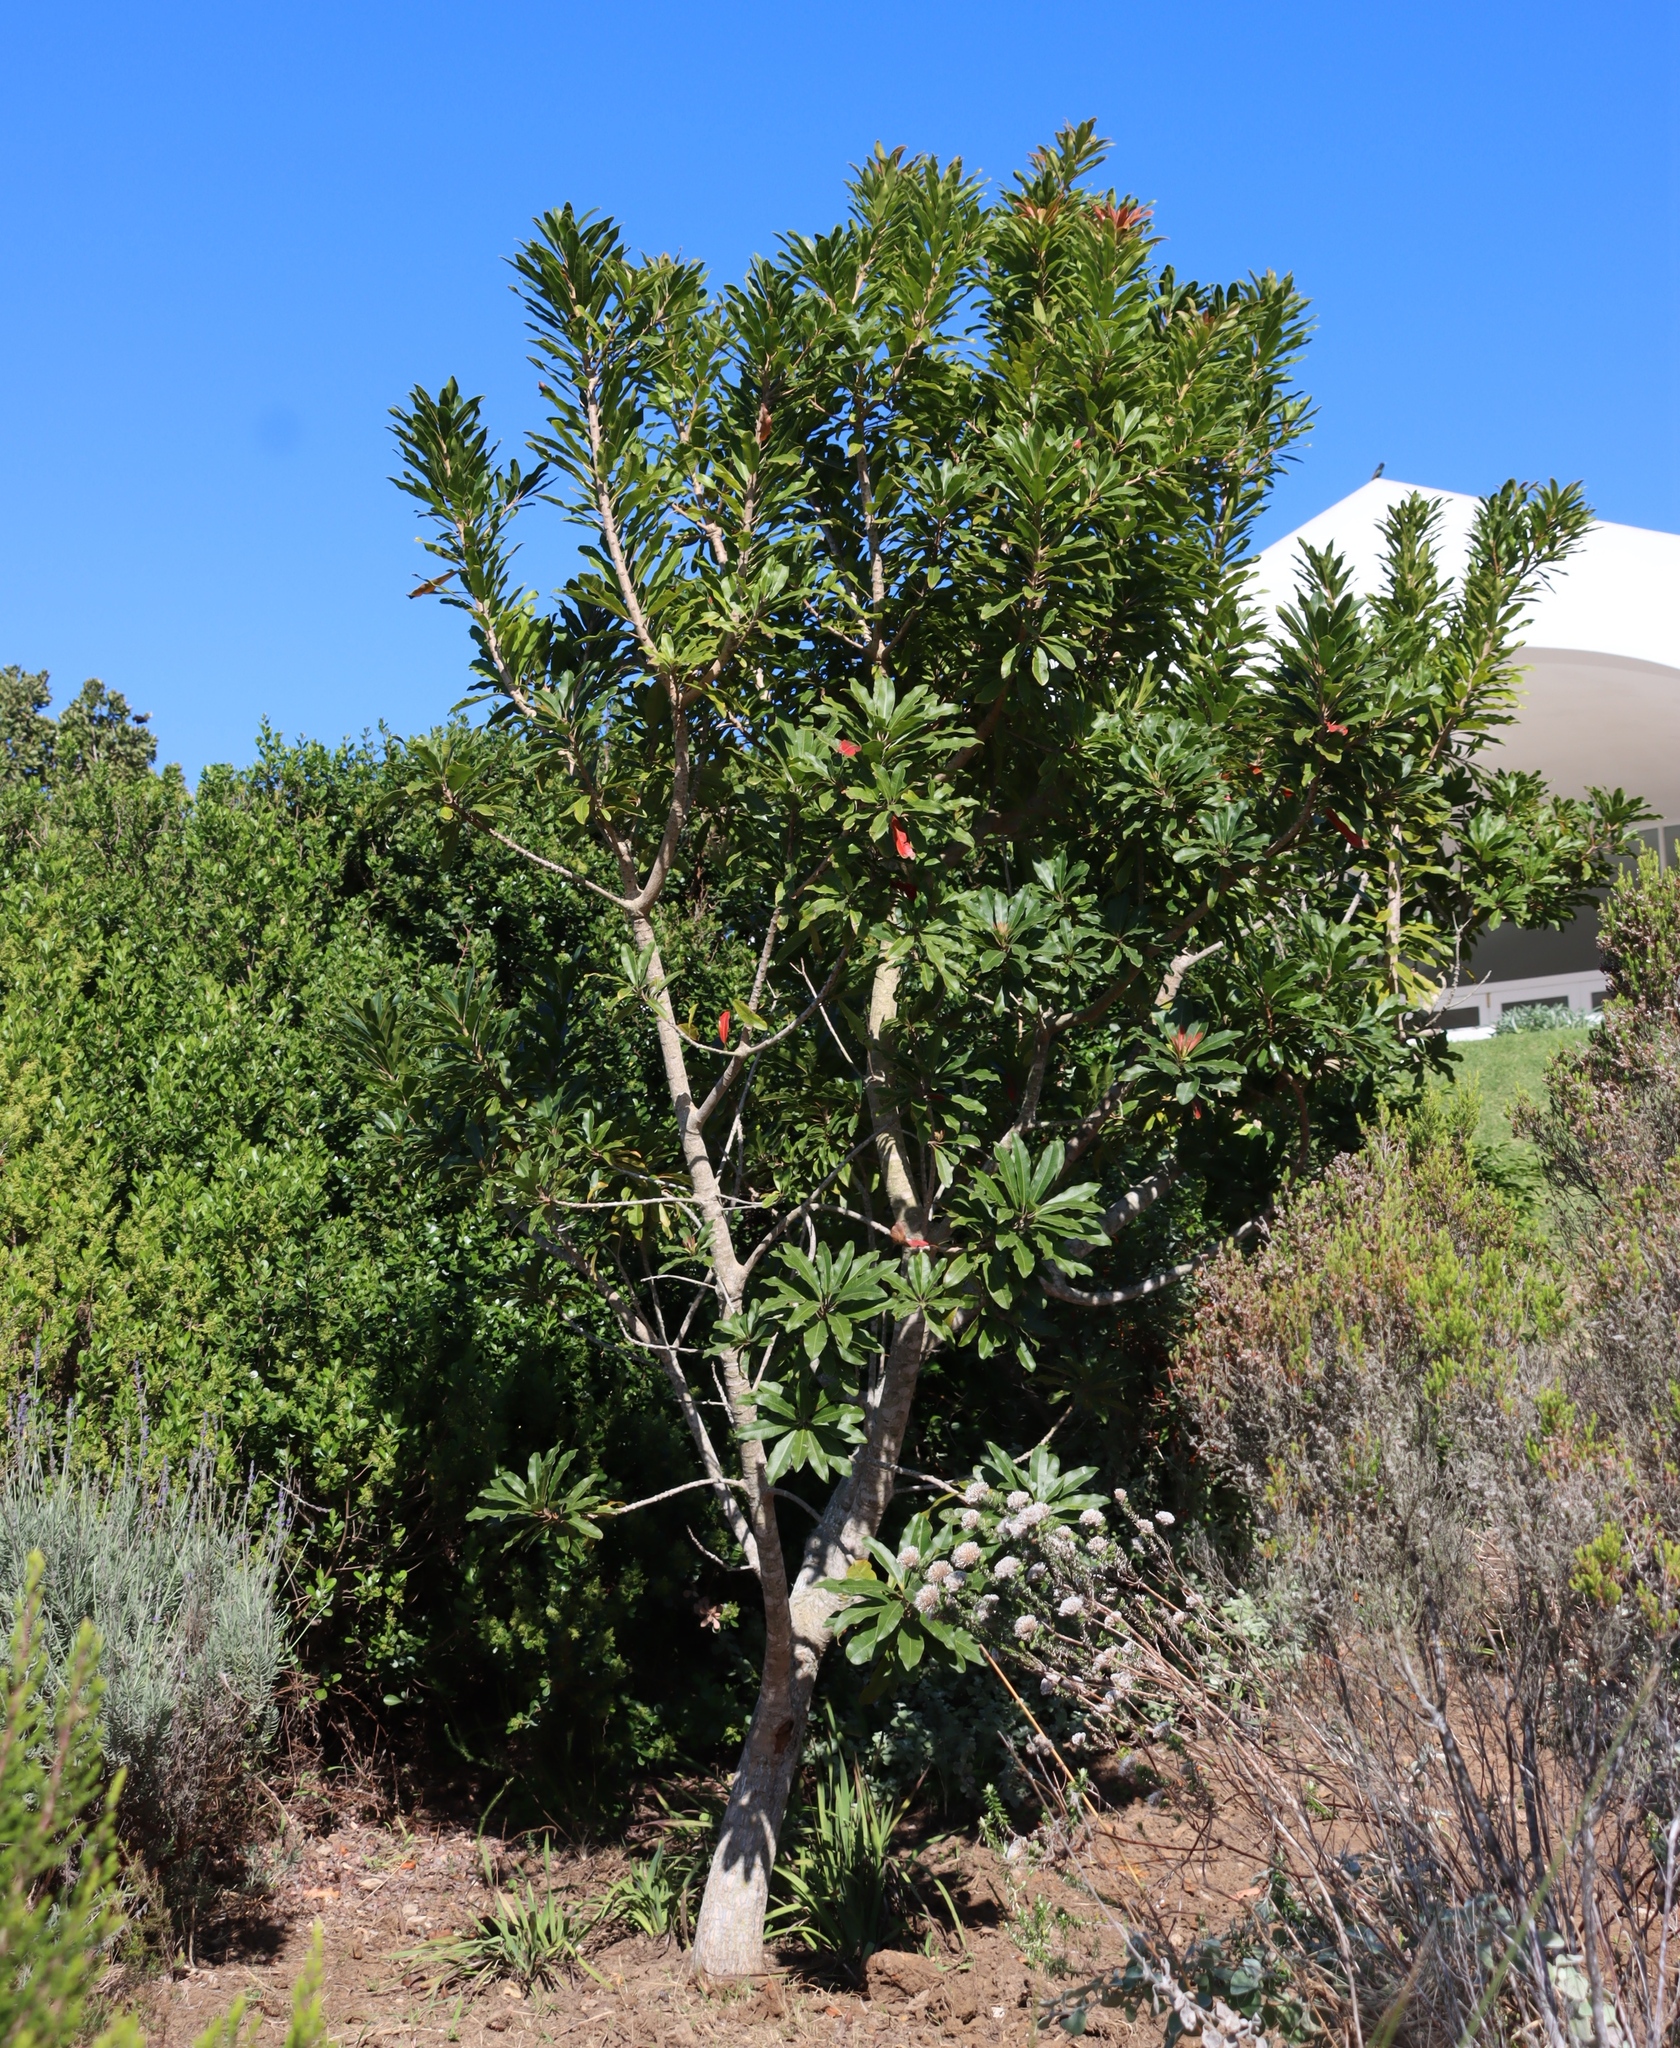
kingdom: Plantae
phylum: Tracheophyta
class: Magnoliopsida
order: Ericales
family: Primulaceae
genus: Myrsine
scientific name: Myrsine melanophloeos
